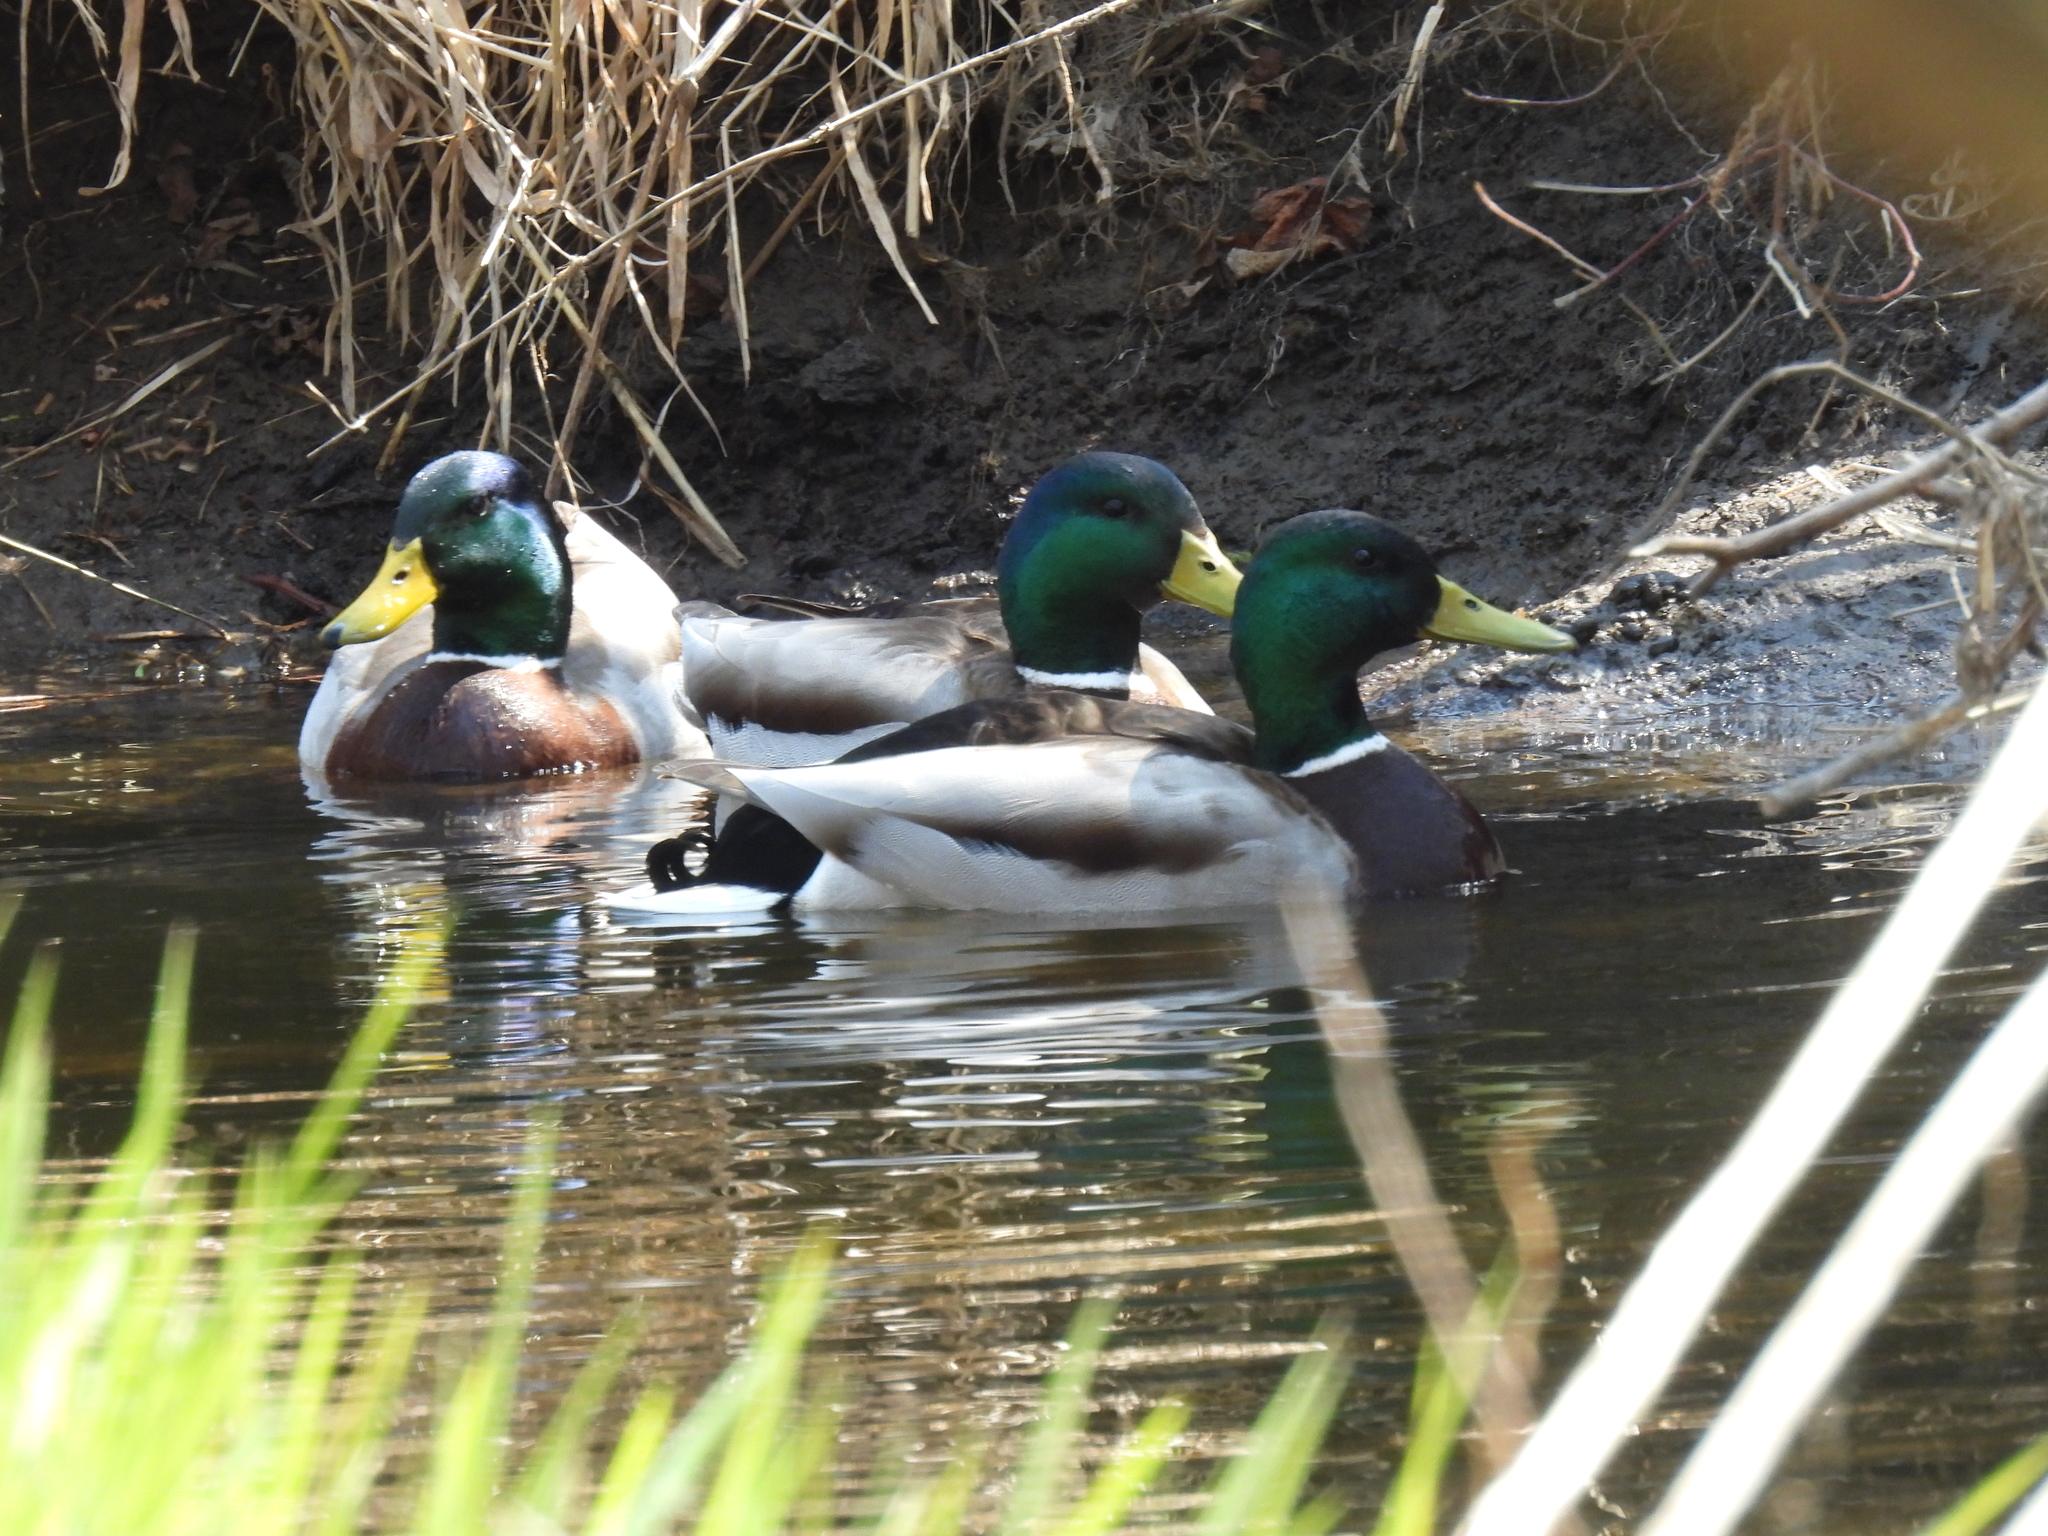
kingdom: Animalia
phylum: Chordata
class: Aves
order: Anseriformes
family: Anatidae
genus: Anas
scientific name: Anas platyrhynchos
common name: Mallard
